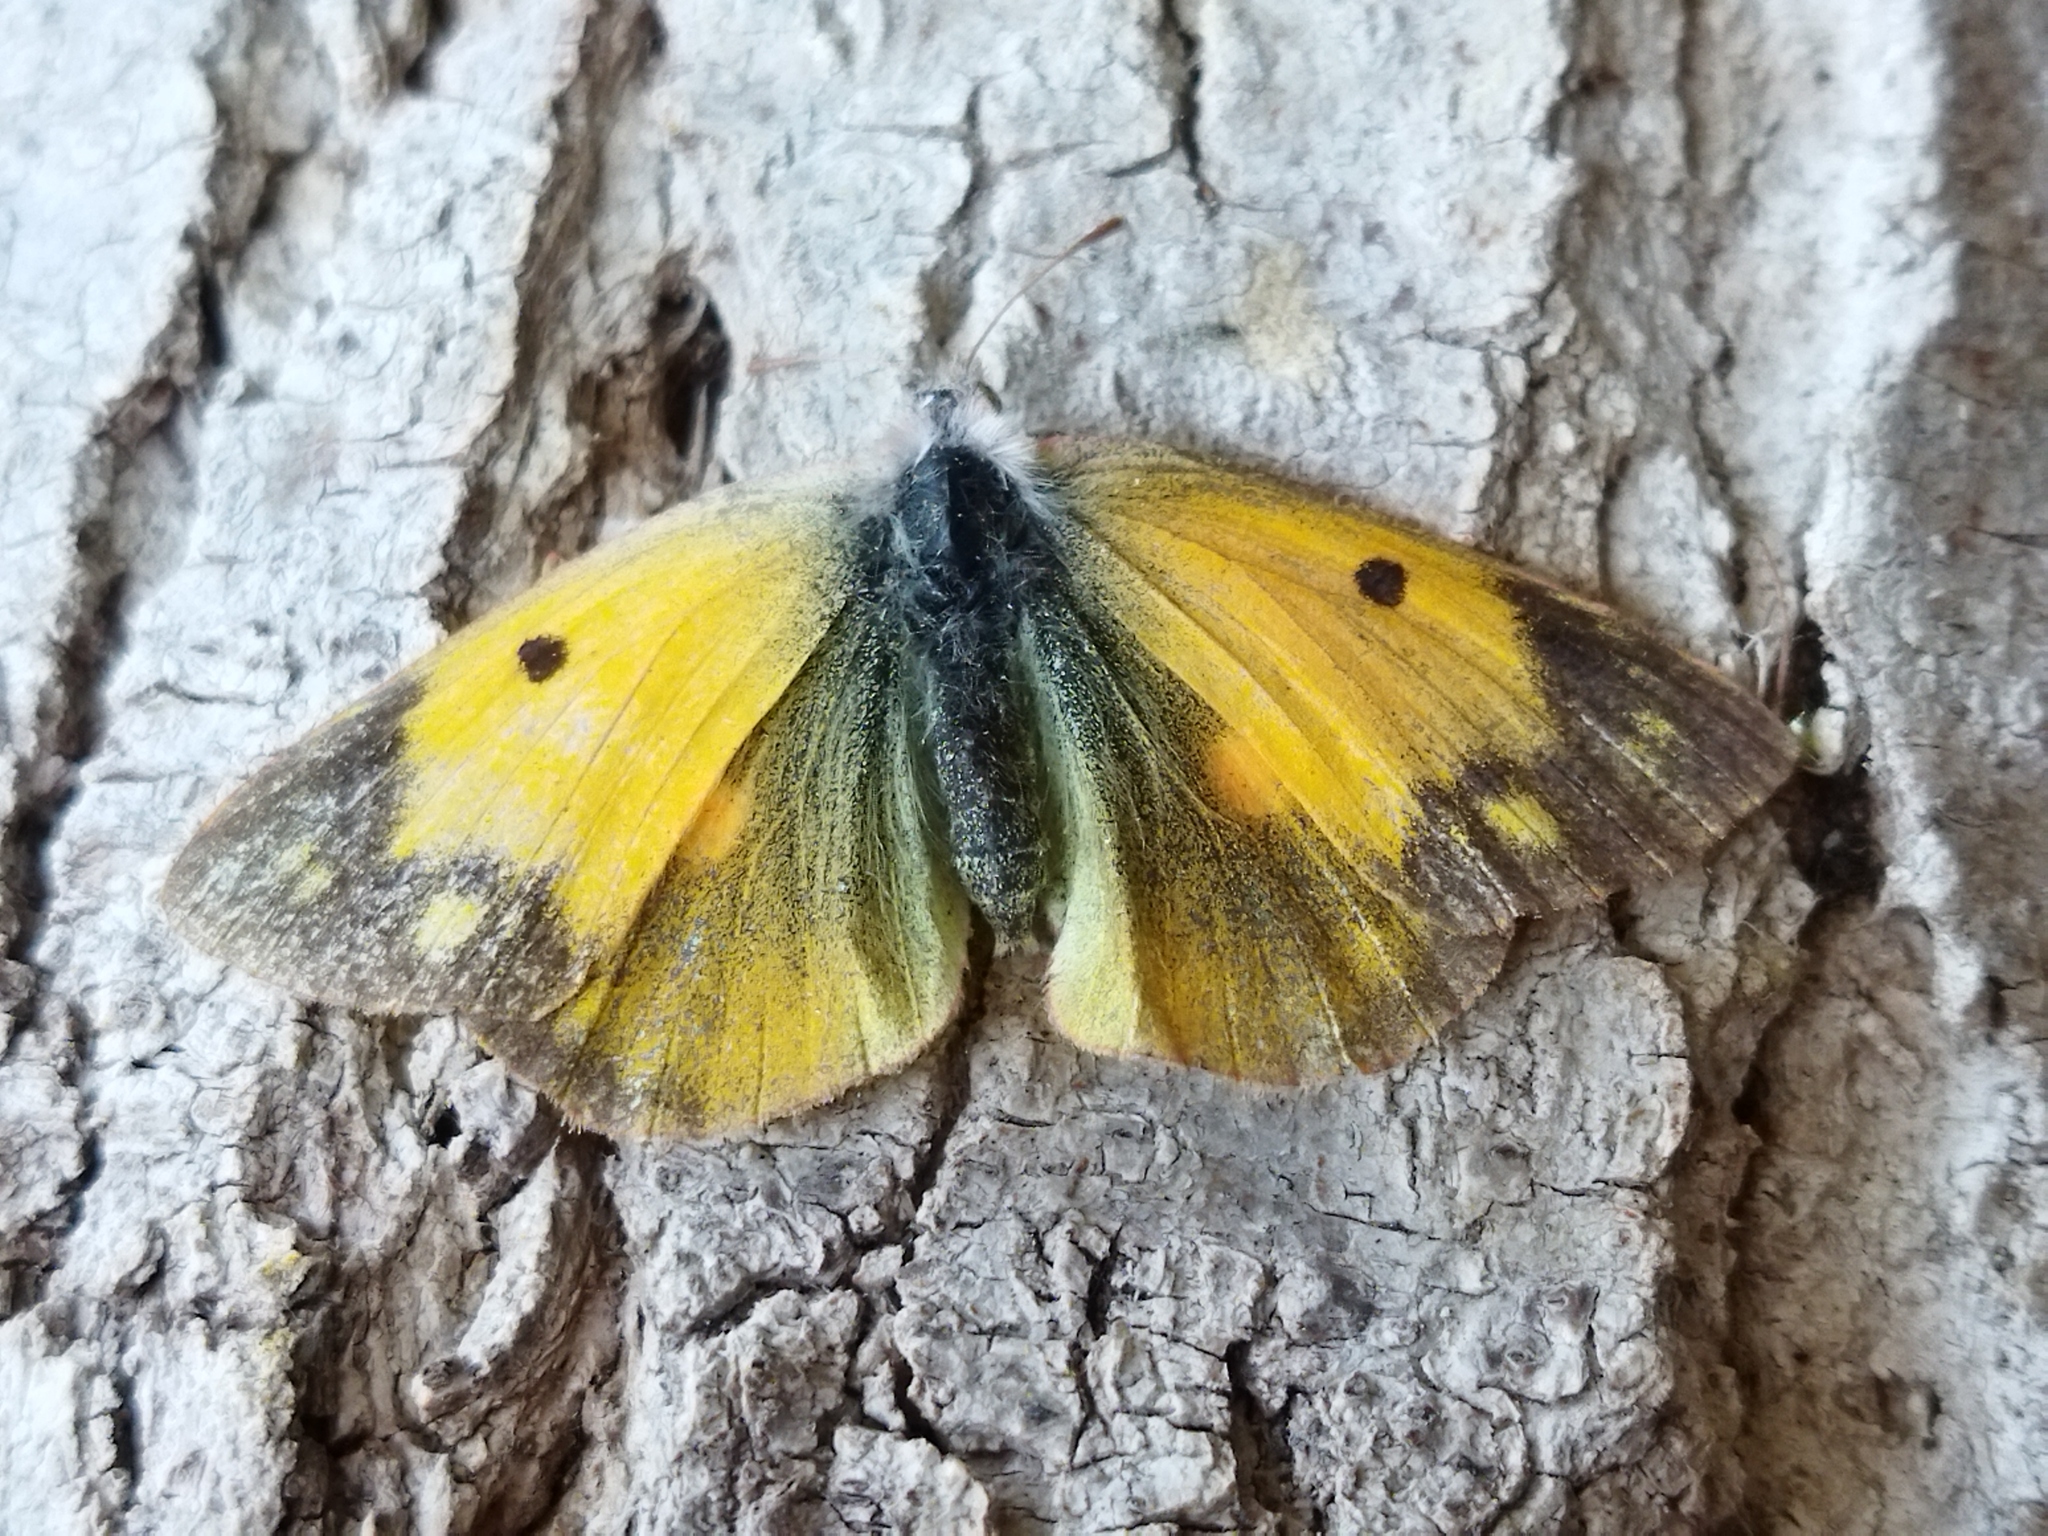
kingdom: Animalia
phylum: Arthropoda
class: Insecta
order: Lepidoptera
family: Pieridae
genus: Colias
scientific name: Colias croceus
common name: Clouded yellow
